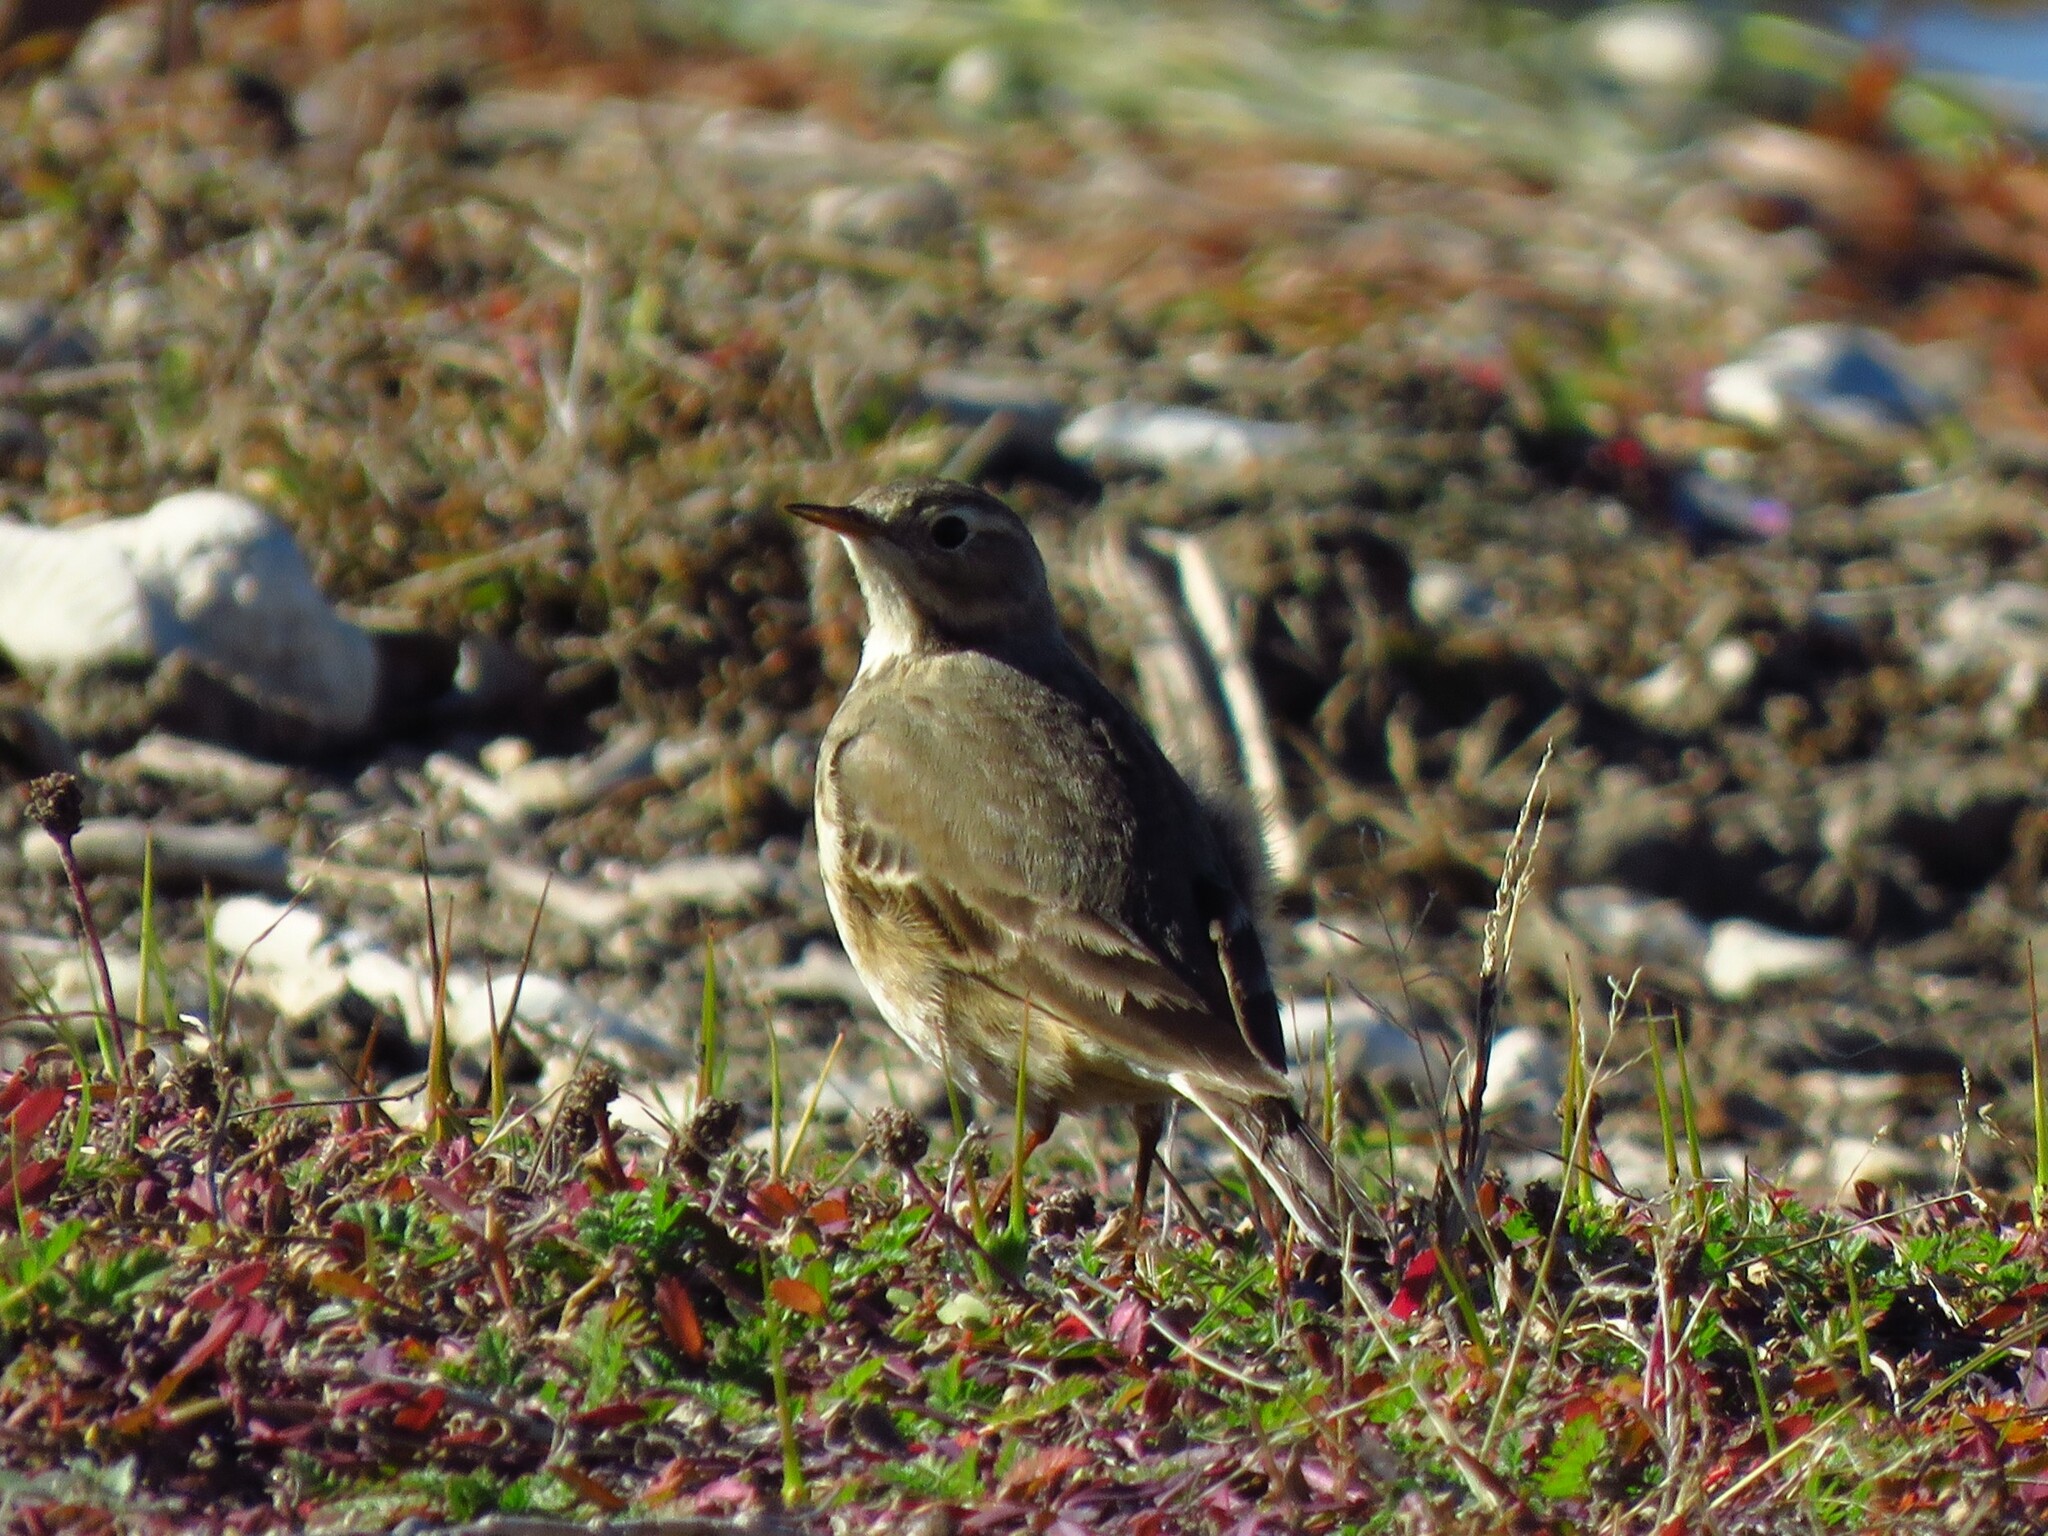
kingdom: Animalia
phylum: Chordata
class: Aves
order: Passeriformes
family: Motacillidae
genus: Anthus
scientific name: Anthus rubescens
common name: Buff-bellied pipit
